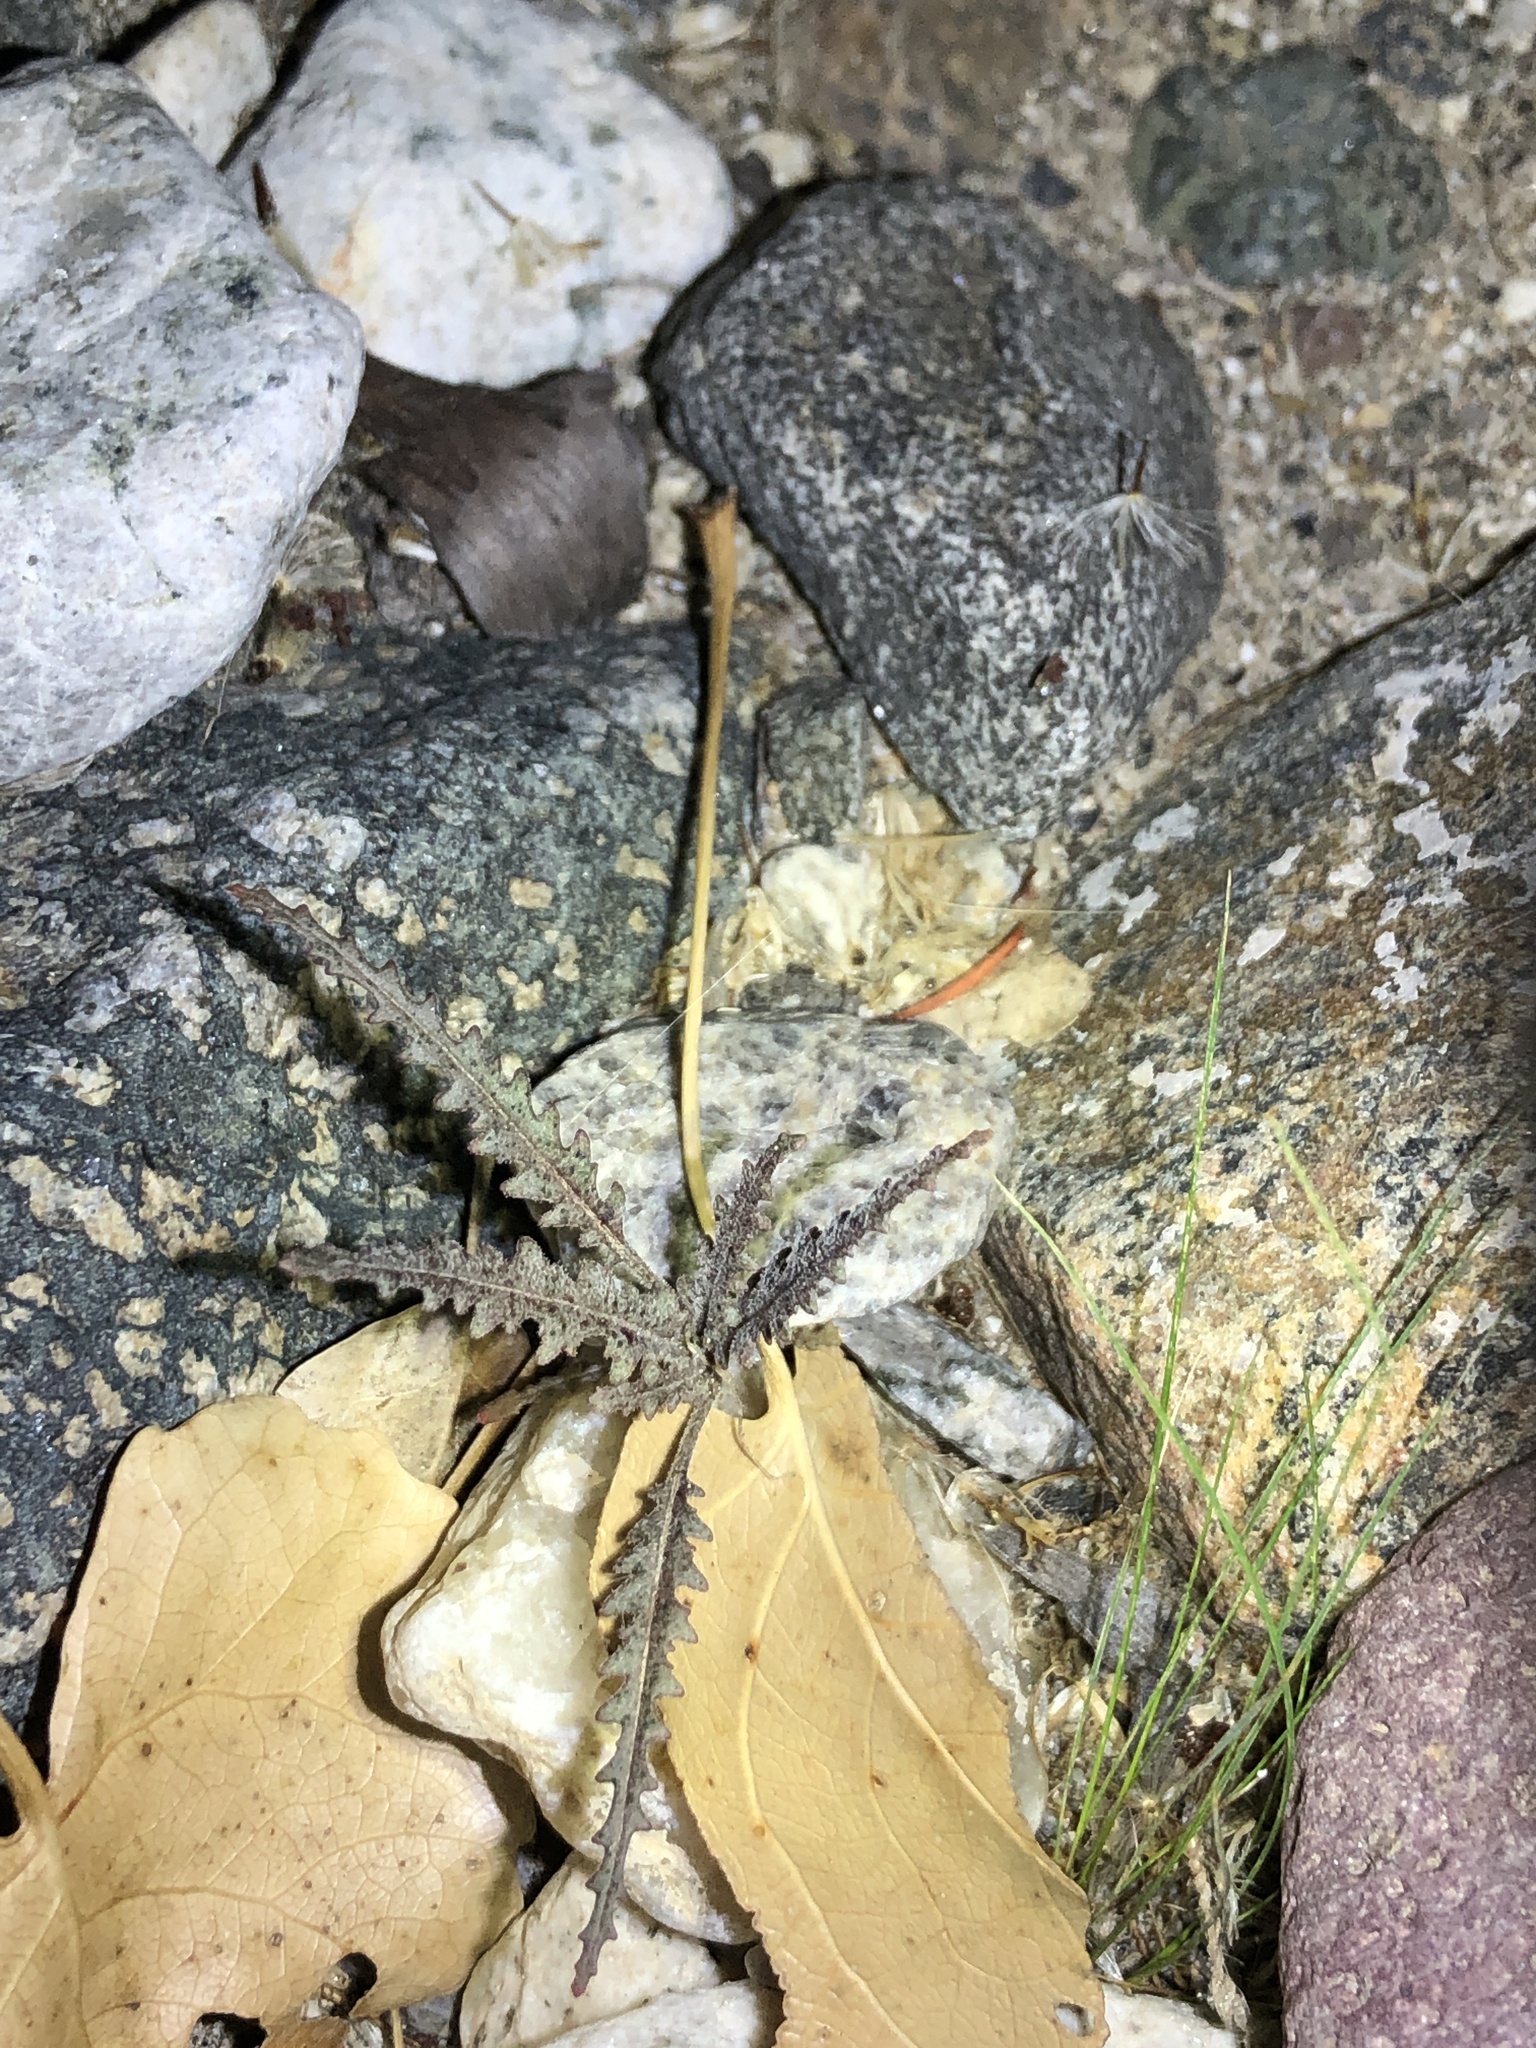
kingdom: Plantae
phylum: Tracheophyta
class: Magnoliopsida
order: Lamiales
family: Orobanchaceae
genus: Pedicularis
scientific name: Pedicularis semibarbata
